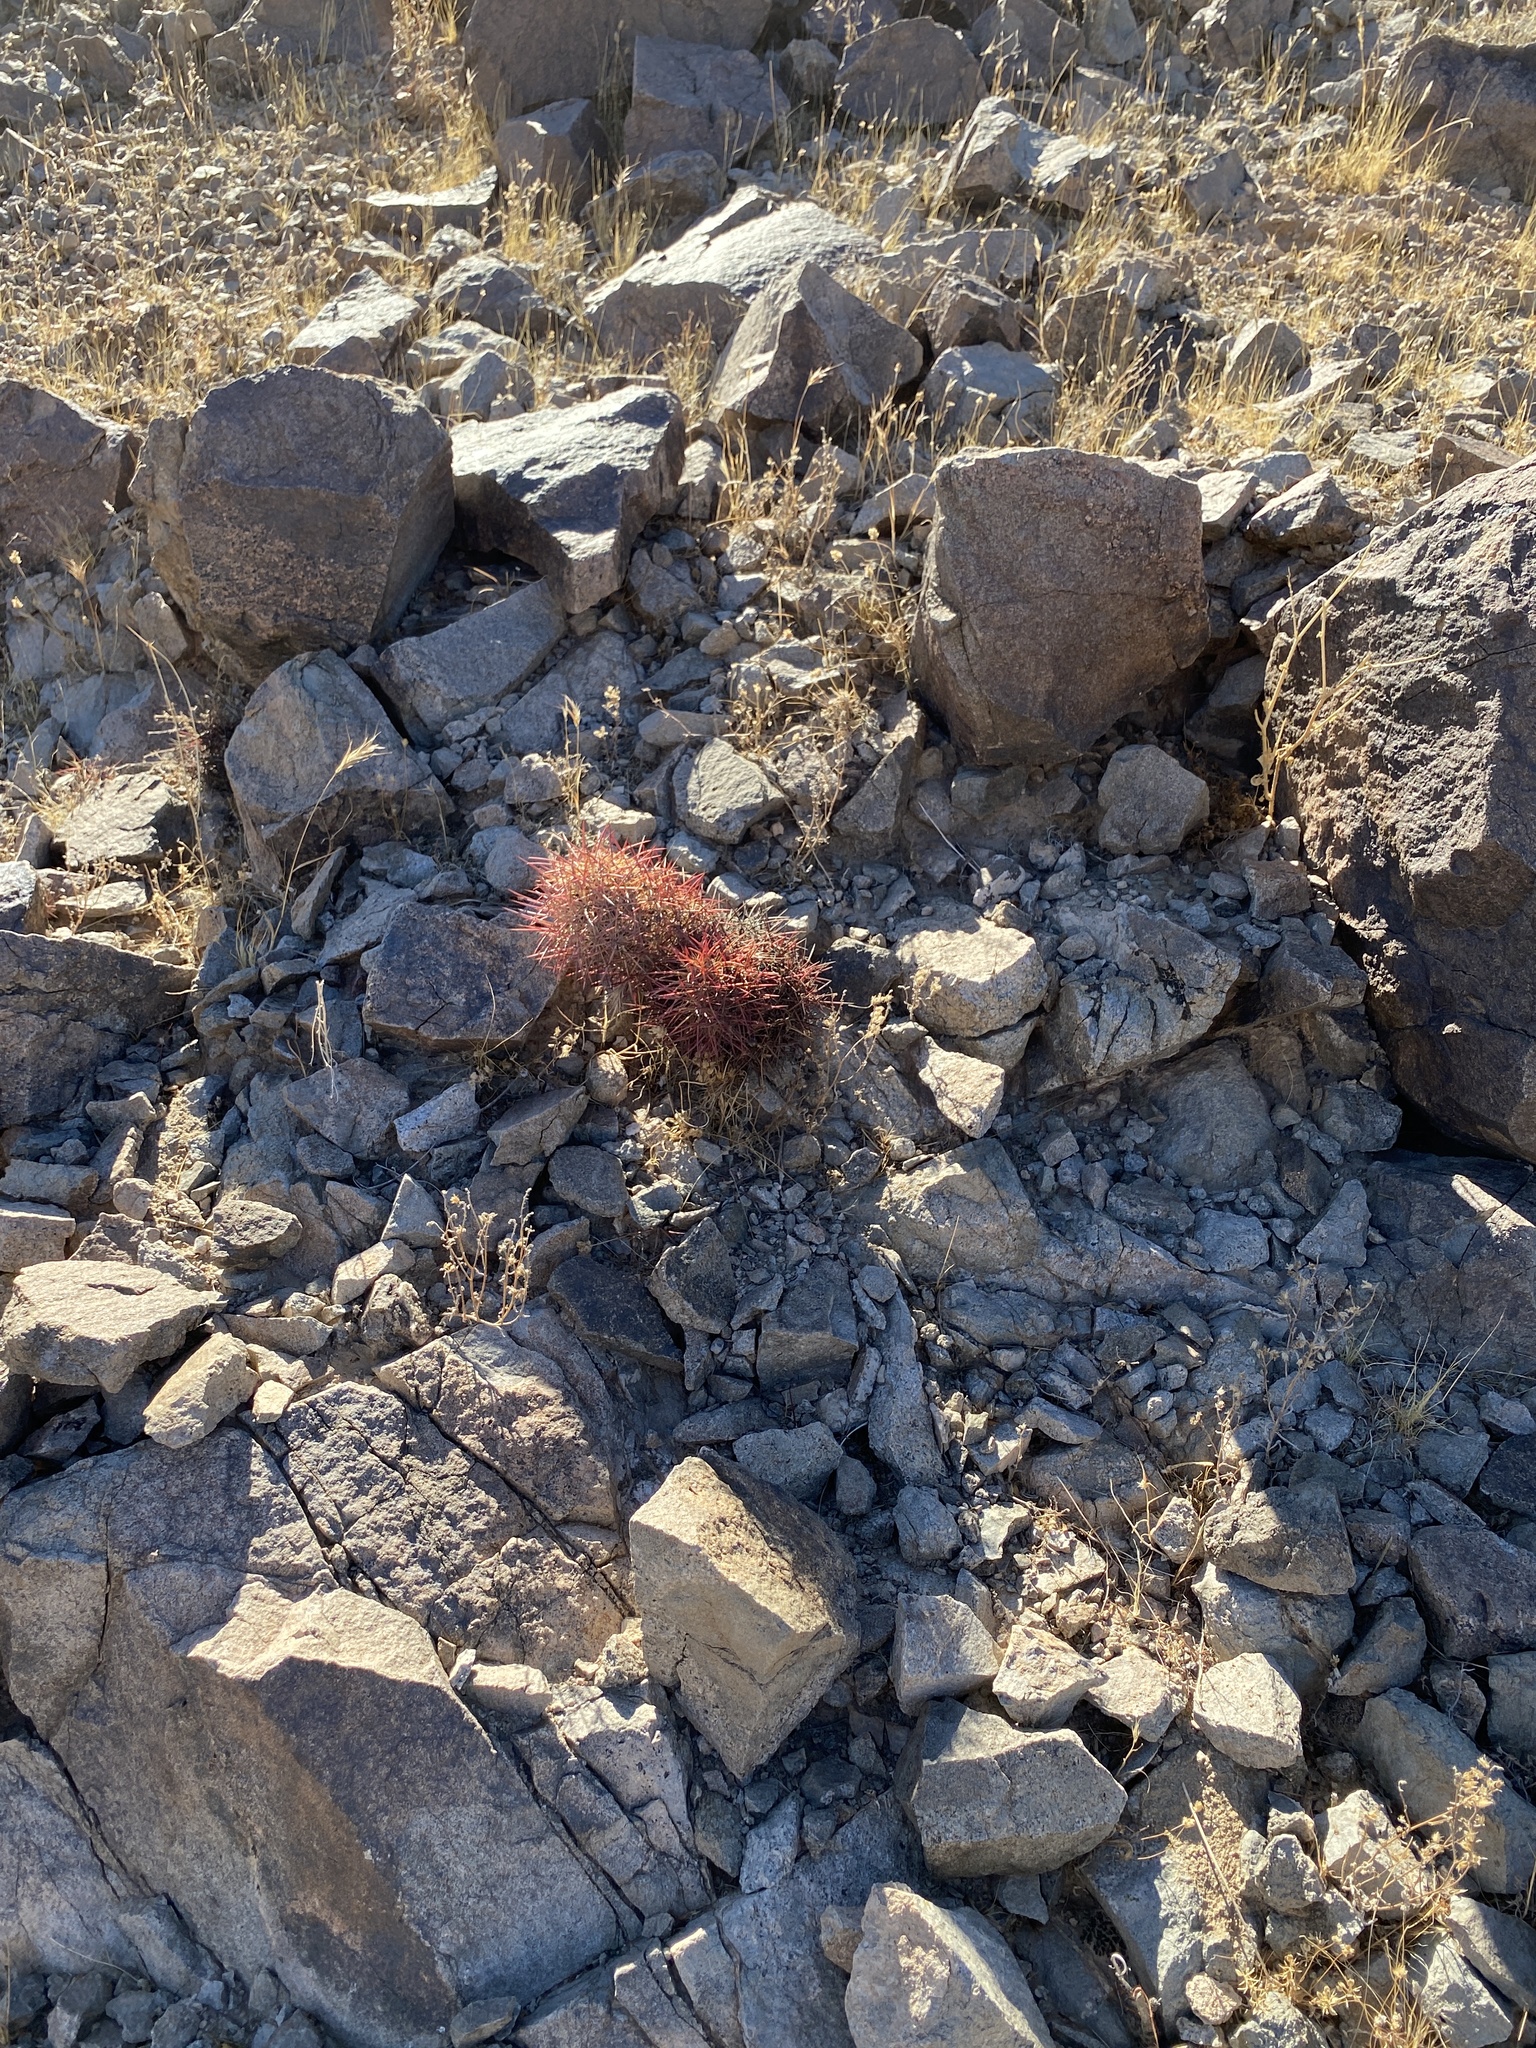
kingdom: Plantae
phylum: Tracheophyta
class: Magnoliopsida
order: Caryophyllales
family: Cactaceae
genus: Sclerocactus
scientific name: Sclerocactus johnsonii
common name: Eight-spine fishhook cactus
